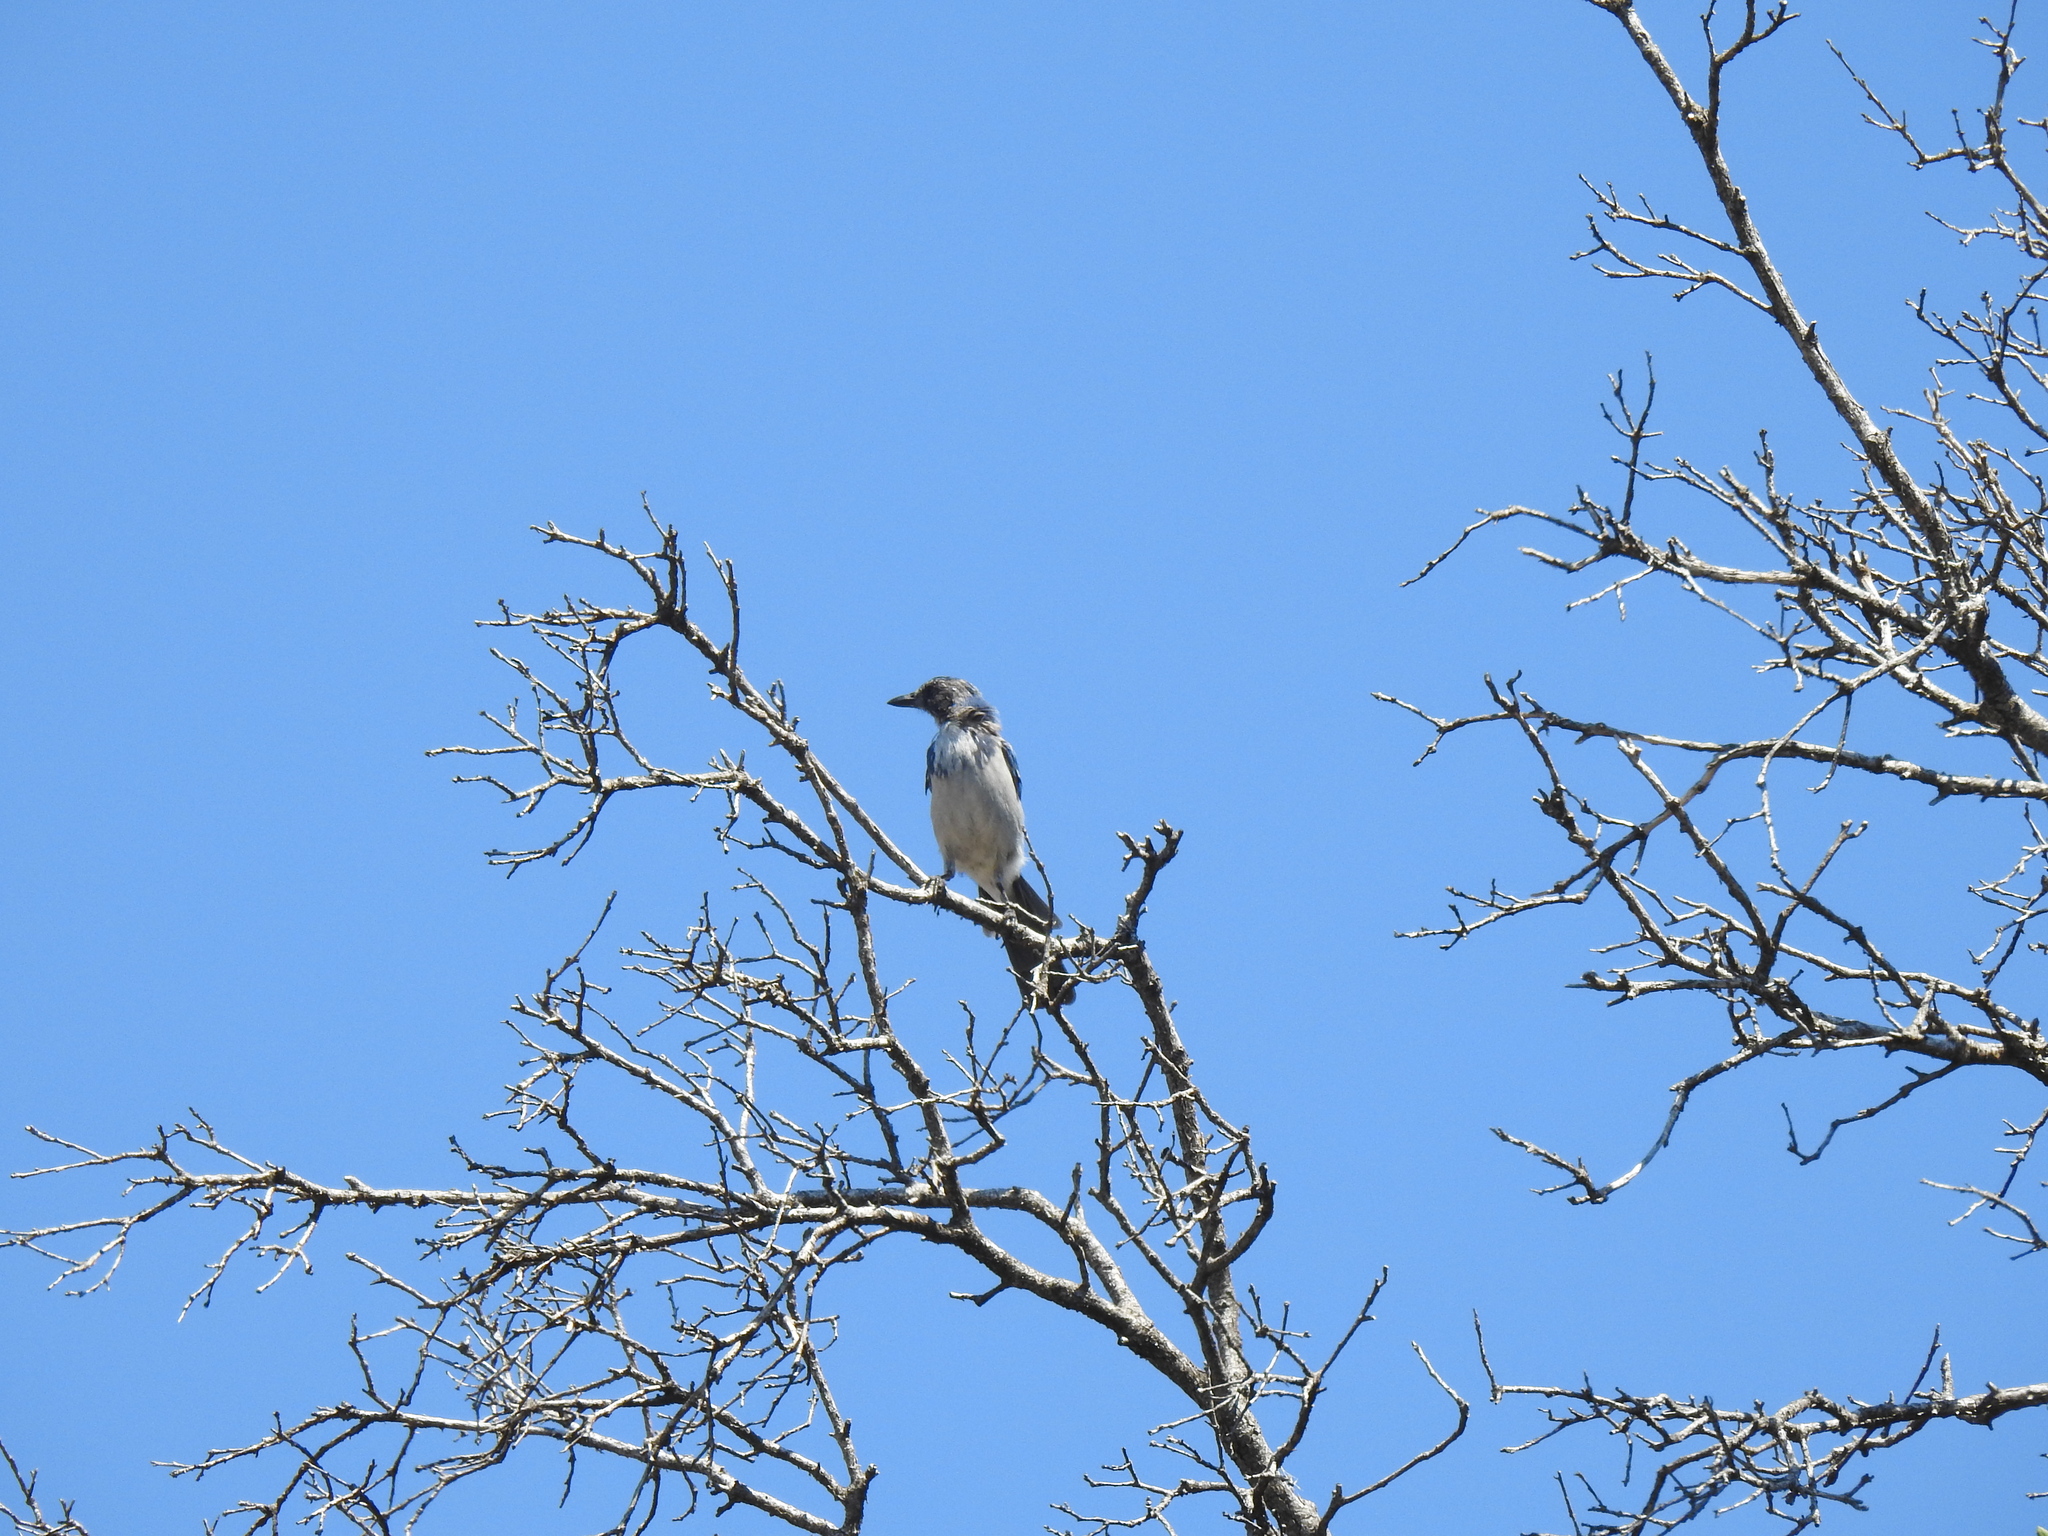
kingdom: Animalia
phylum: Chordata
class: Aves
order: Passeriformes
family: Corvidae
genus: Aphelocoma
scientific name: Aphelocoma californica
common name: California scrub-jay
